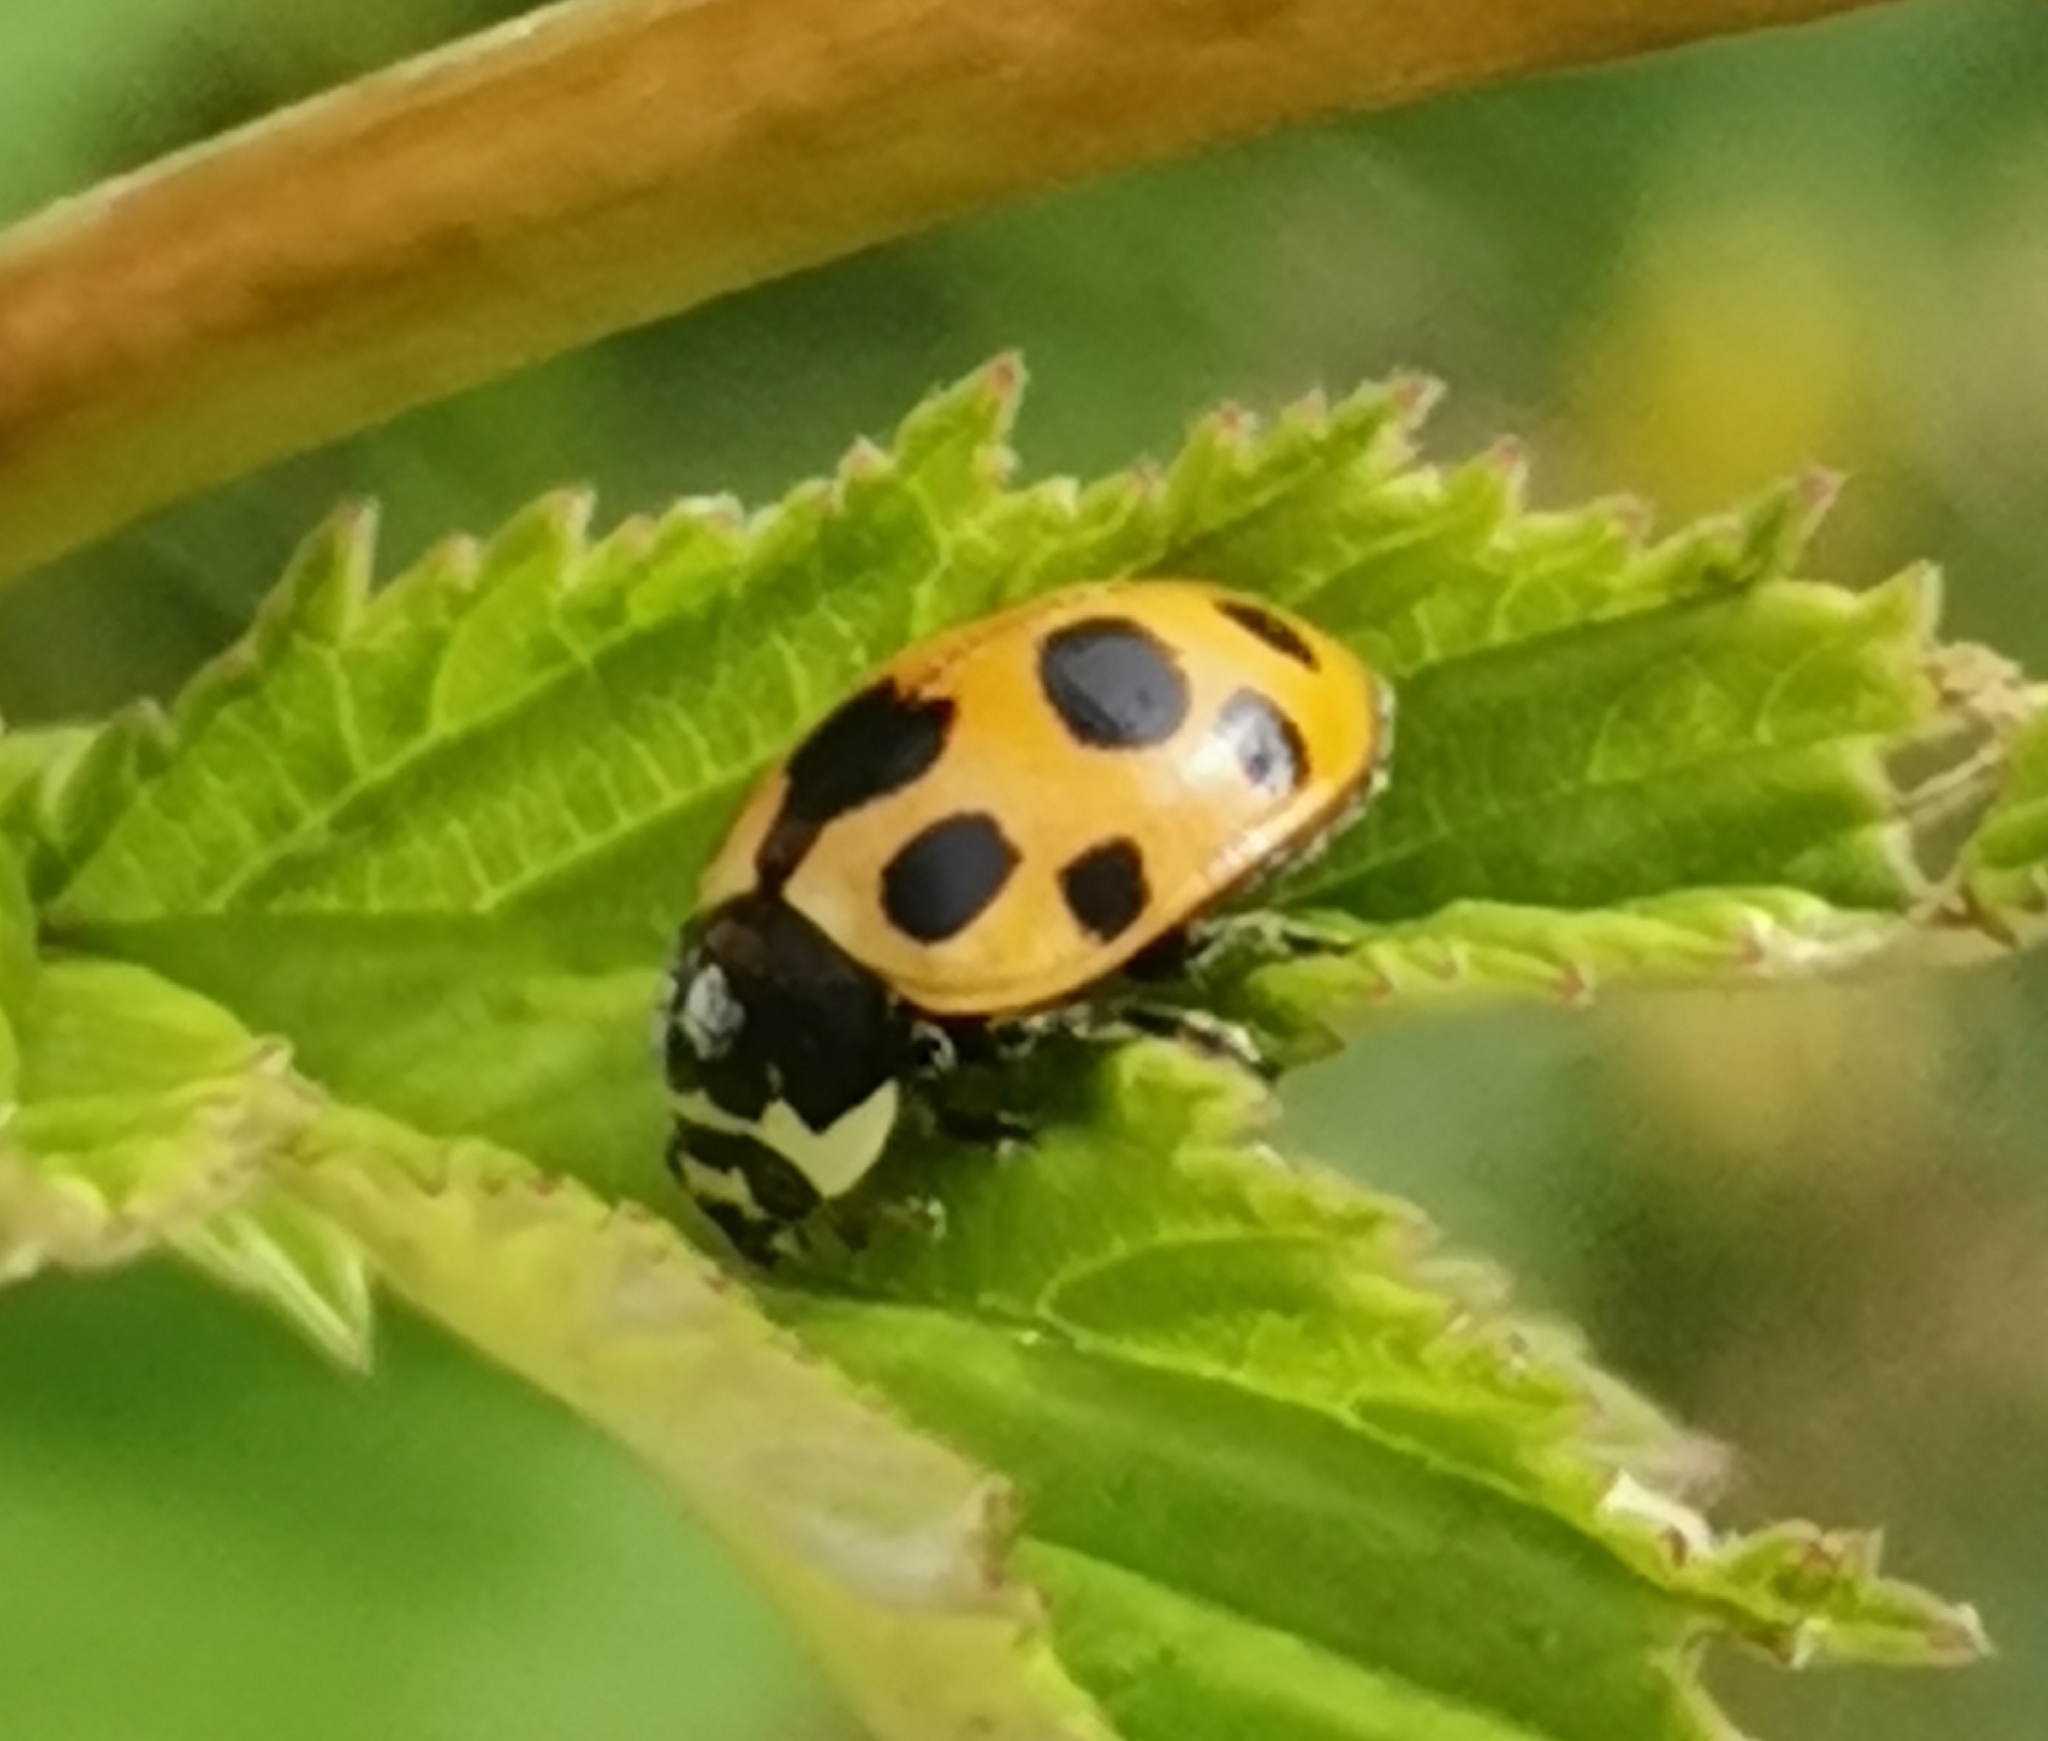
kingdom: Animalia
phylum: Arthropoda
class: Insecta
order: Coleoptera
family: Coccinellidae
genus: Ceratomegilla
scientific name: Ceratomegilla notata
